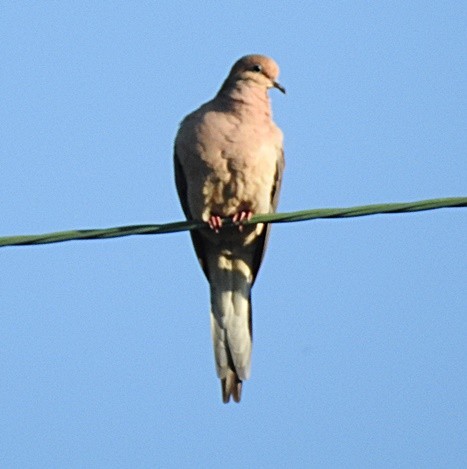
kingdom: Animalia
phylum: Chordata
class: Aves
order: Columbiformes
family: Columbidae
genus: Zenaida
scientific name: Zenaida macroura
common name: Mourning dove
